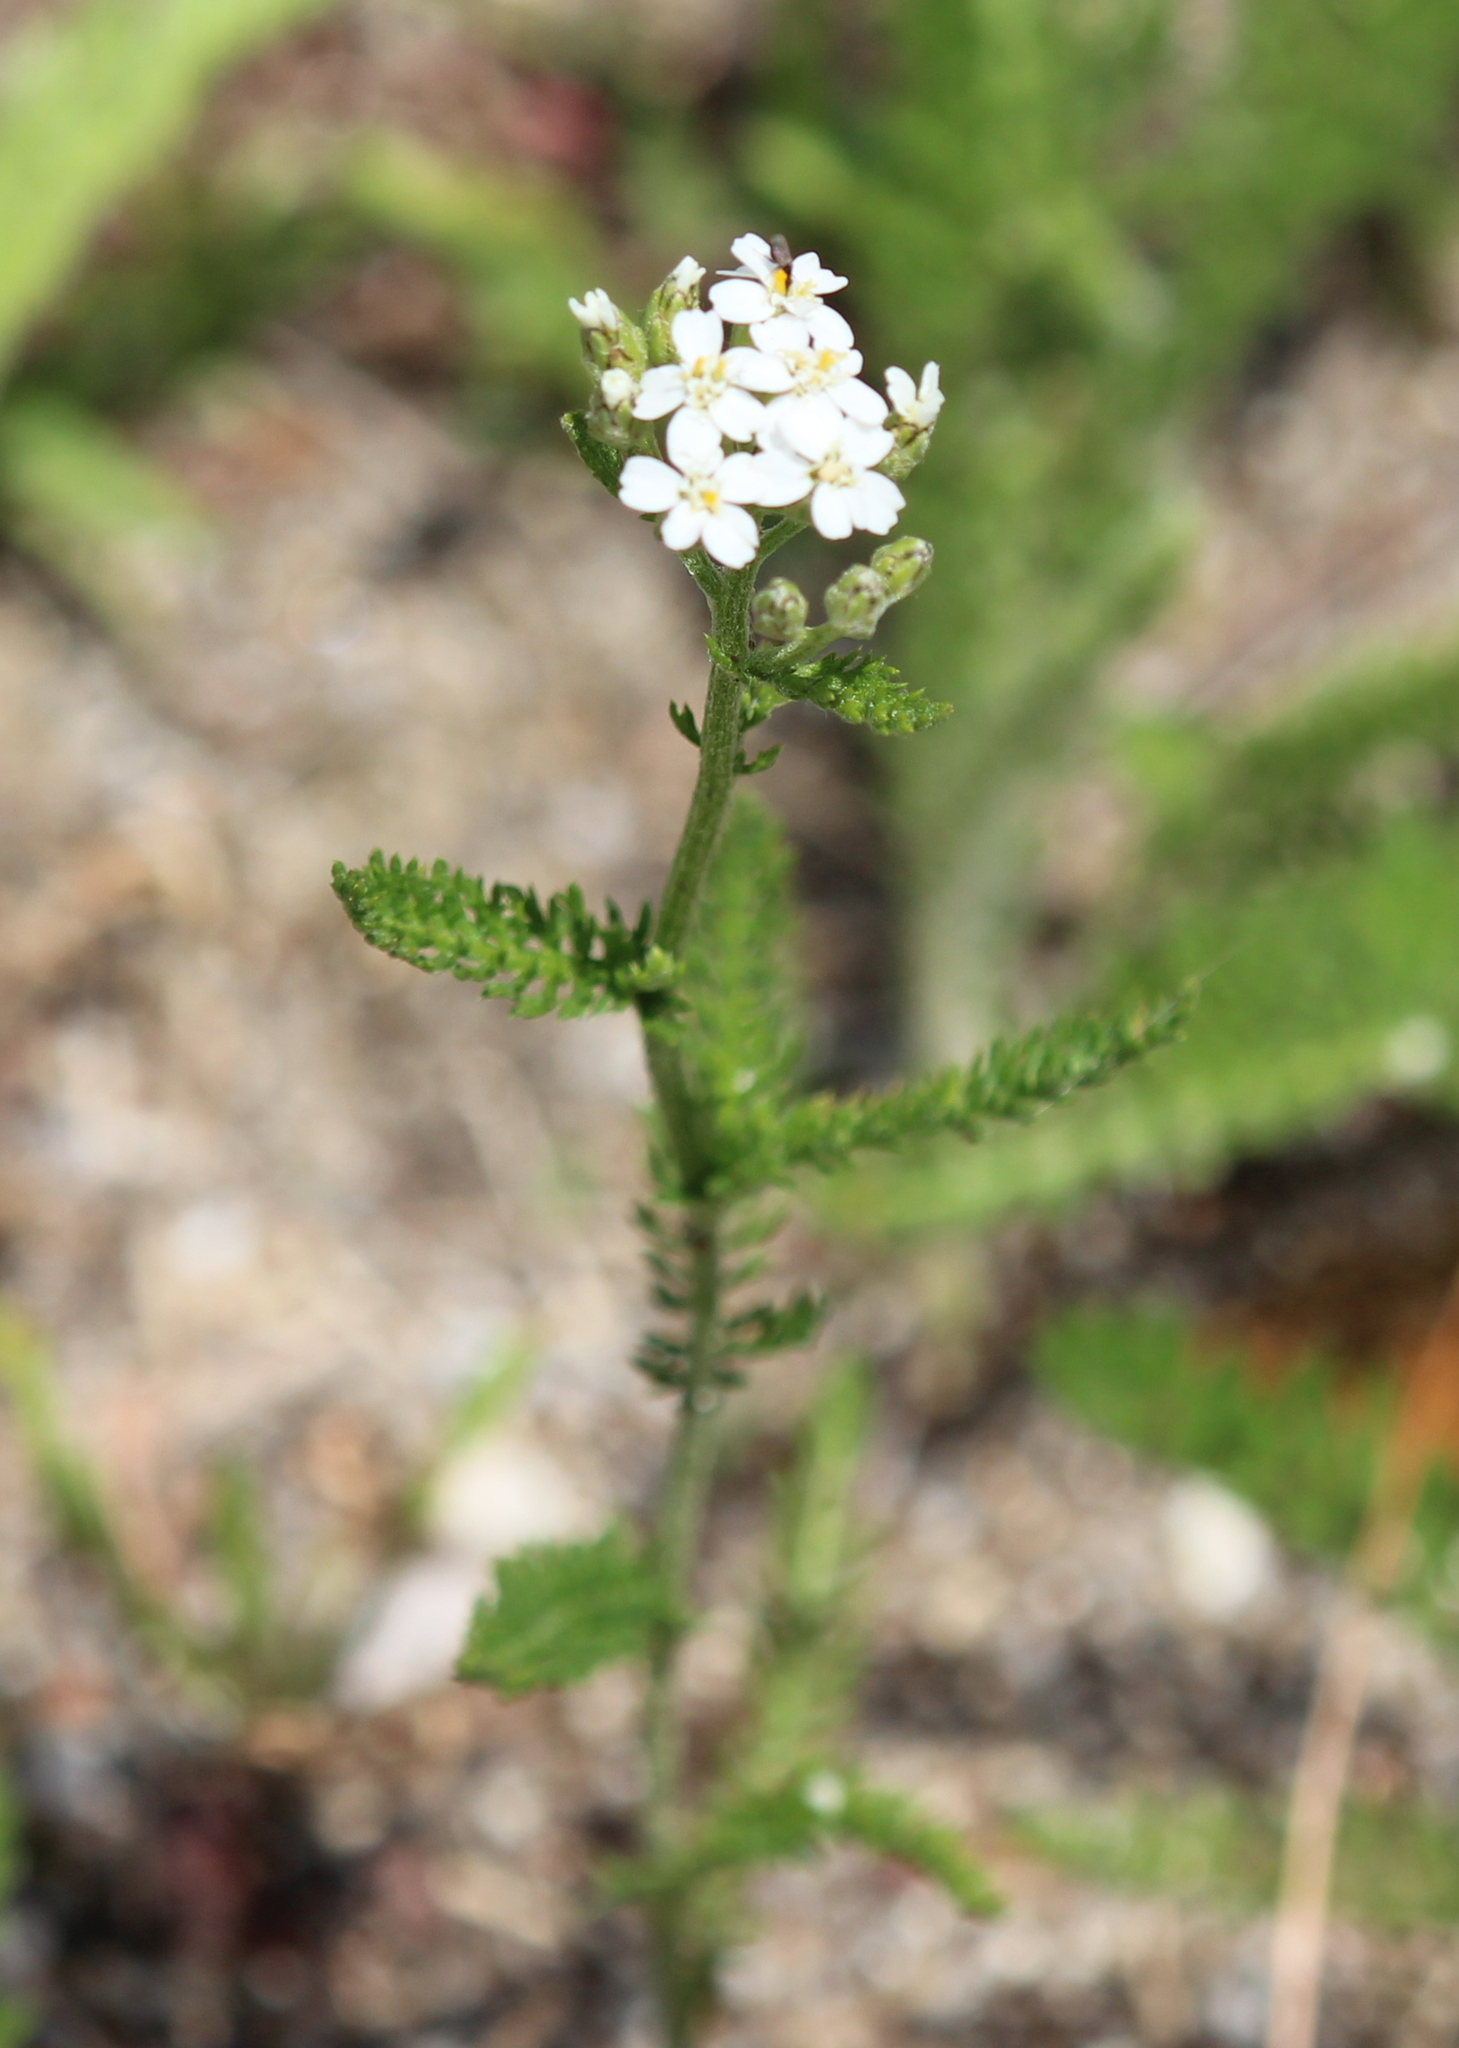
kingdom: Plantae
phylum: Tracheophyta
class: Magnoliopsida
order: Asterales
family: Asteraceae
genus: Achillea
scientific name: Achillea millefolium
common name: Yarrow
